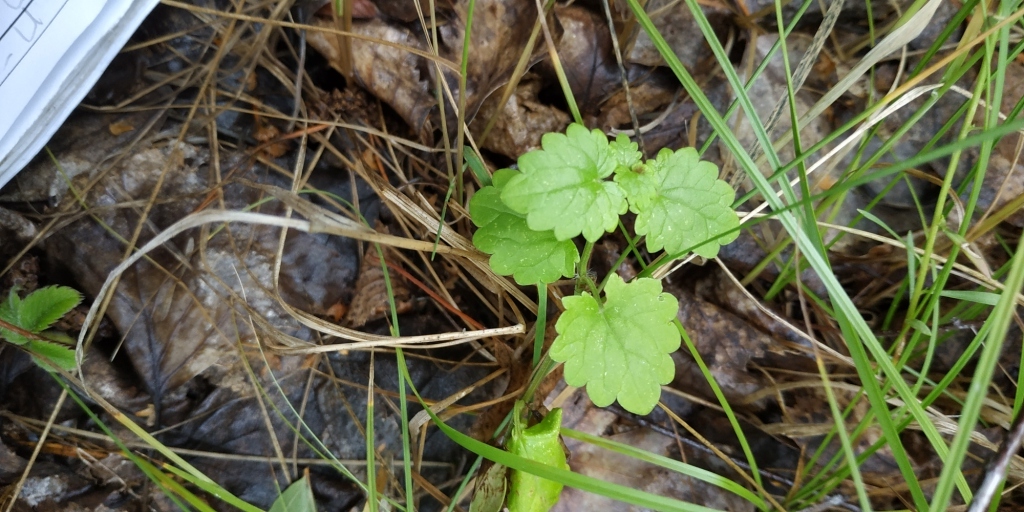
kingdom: Plantae
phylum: Tracheophyta
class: Magnoliopsida
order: Lamiales
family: Lamiaceae
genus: Glechoma
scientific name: Glechoma hederacea
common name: Ground ivy
